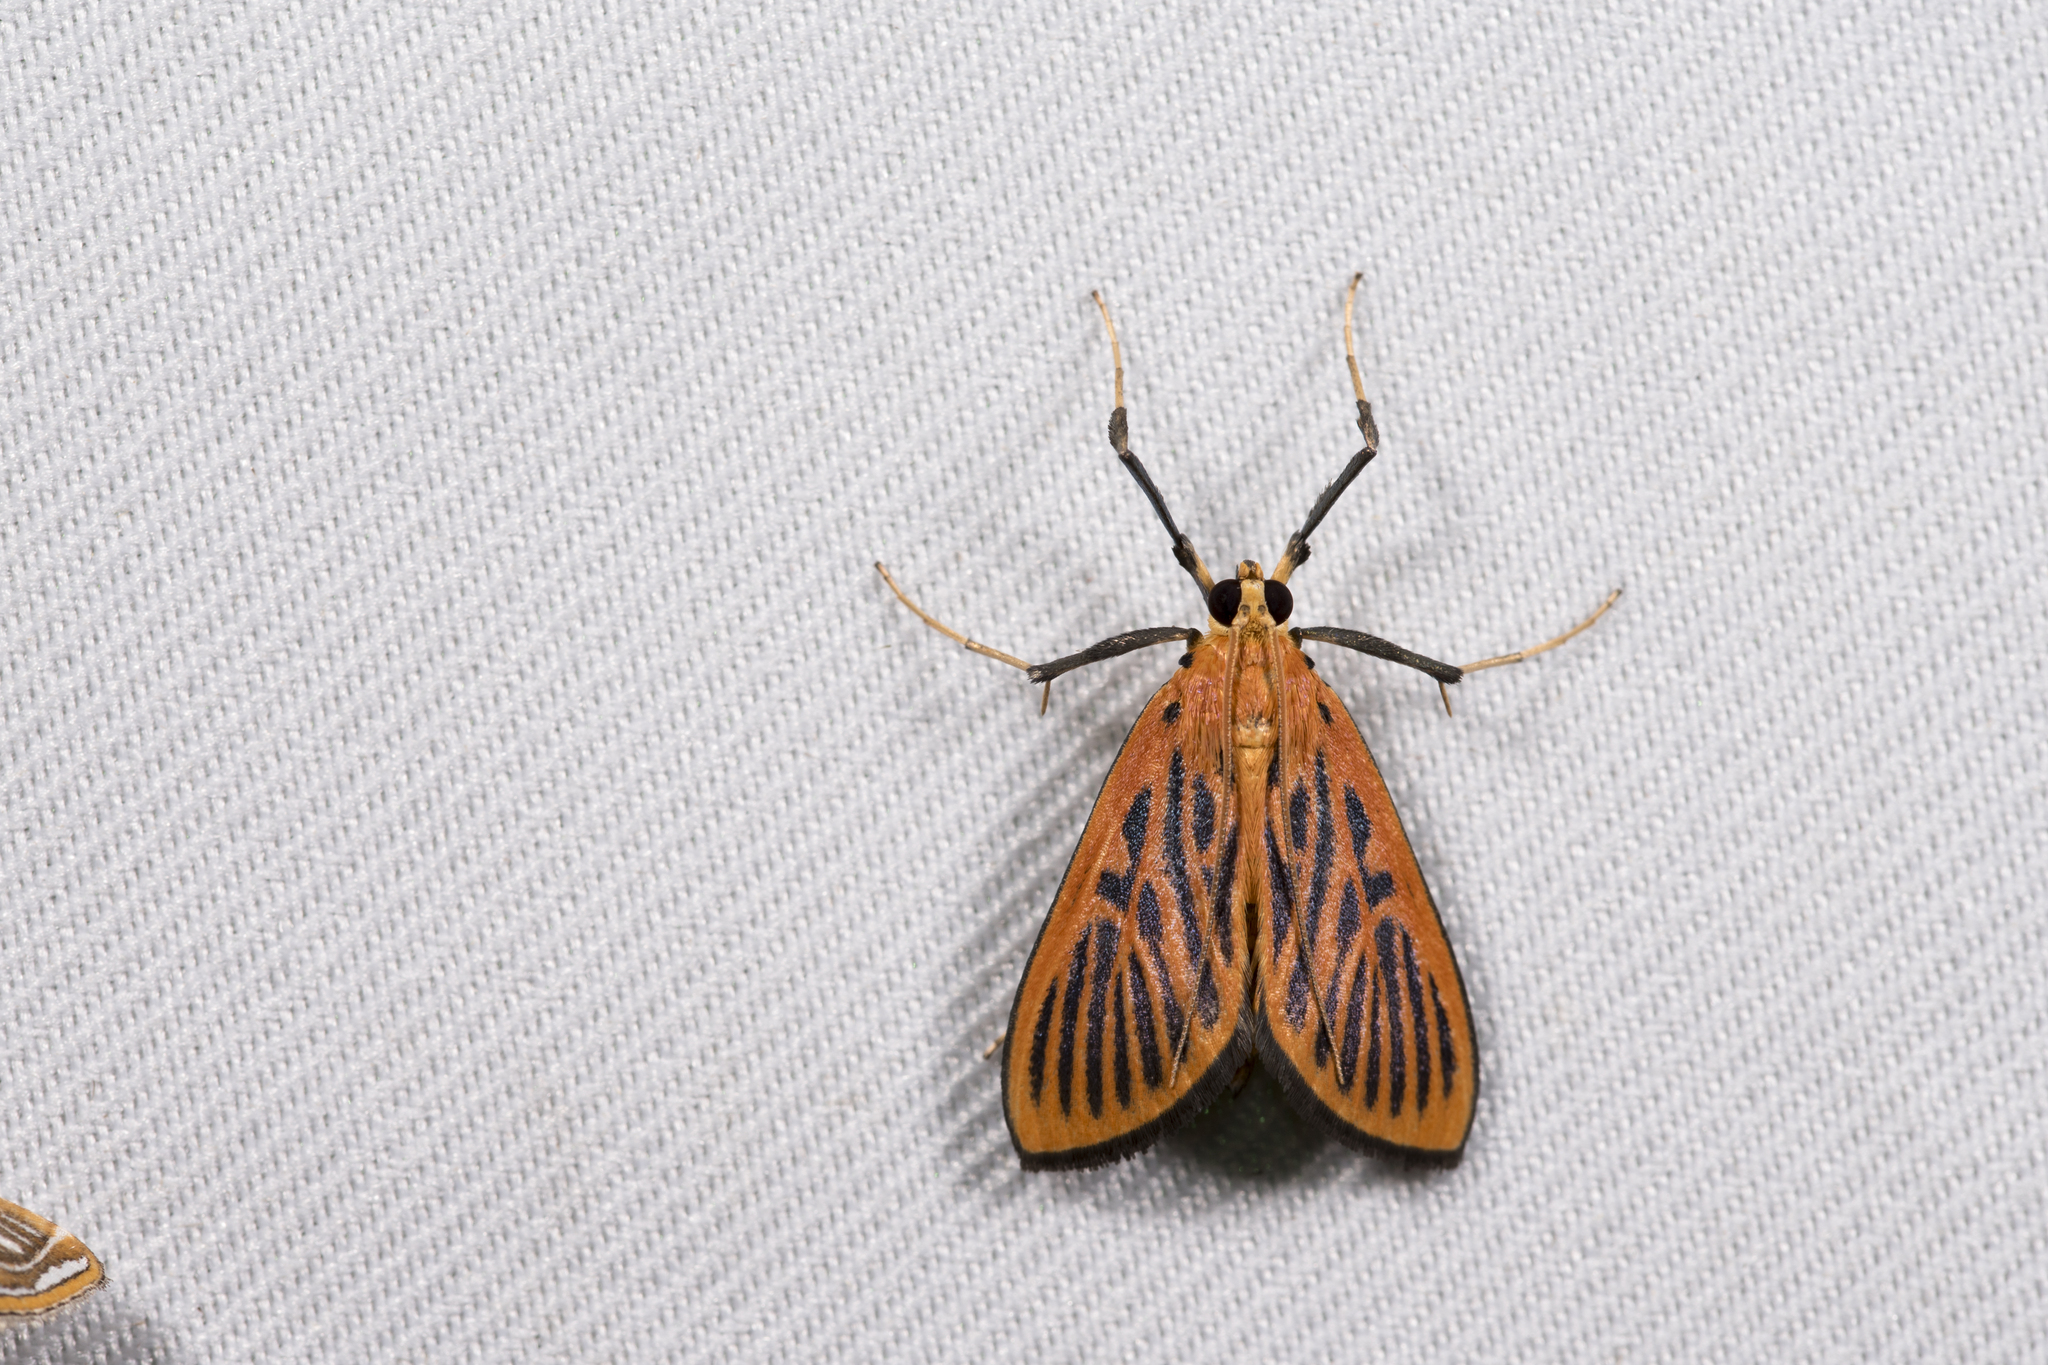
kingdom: Animalia
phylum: Arthropoda
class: Insecta
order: Lepidoptera
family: Crambidae
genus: Tyspanodes
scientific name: Tyspanodes striata
